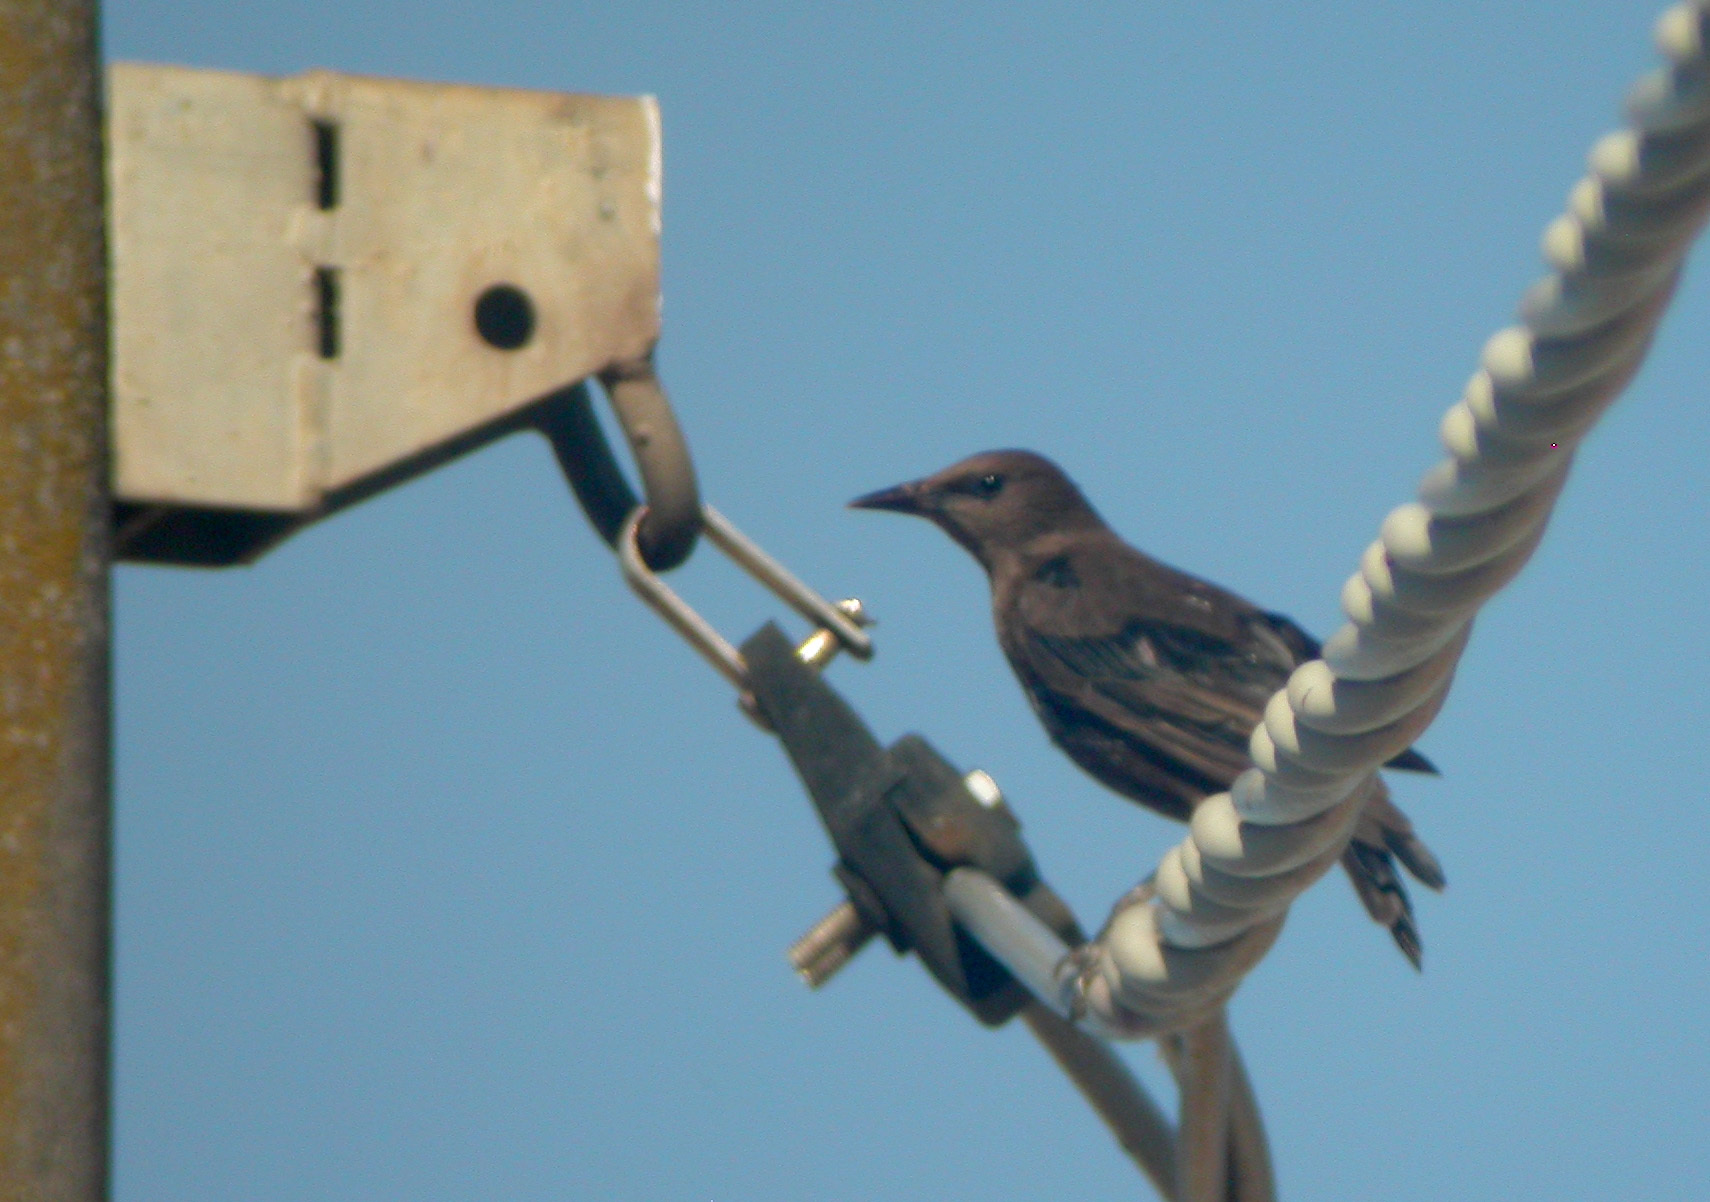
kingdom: Animalia
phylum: Chordata
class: Aves
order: Passeriformes
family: Sturnidae
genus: Sturnus
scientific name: Sturnus unicolor
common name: Spotless starling
